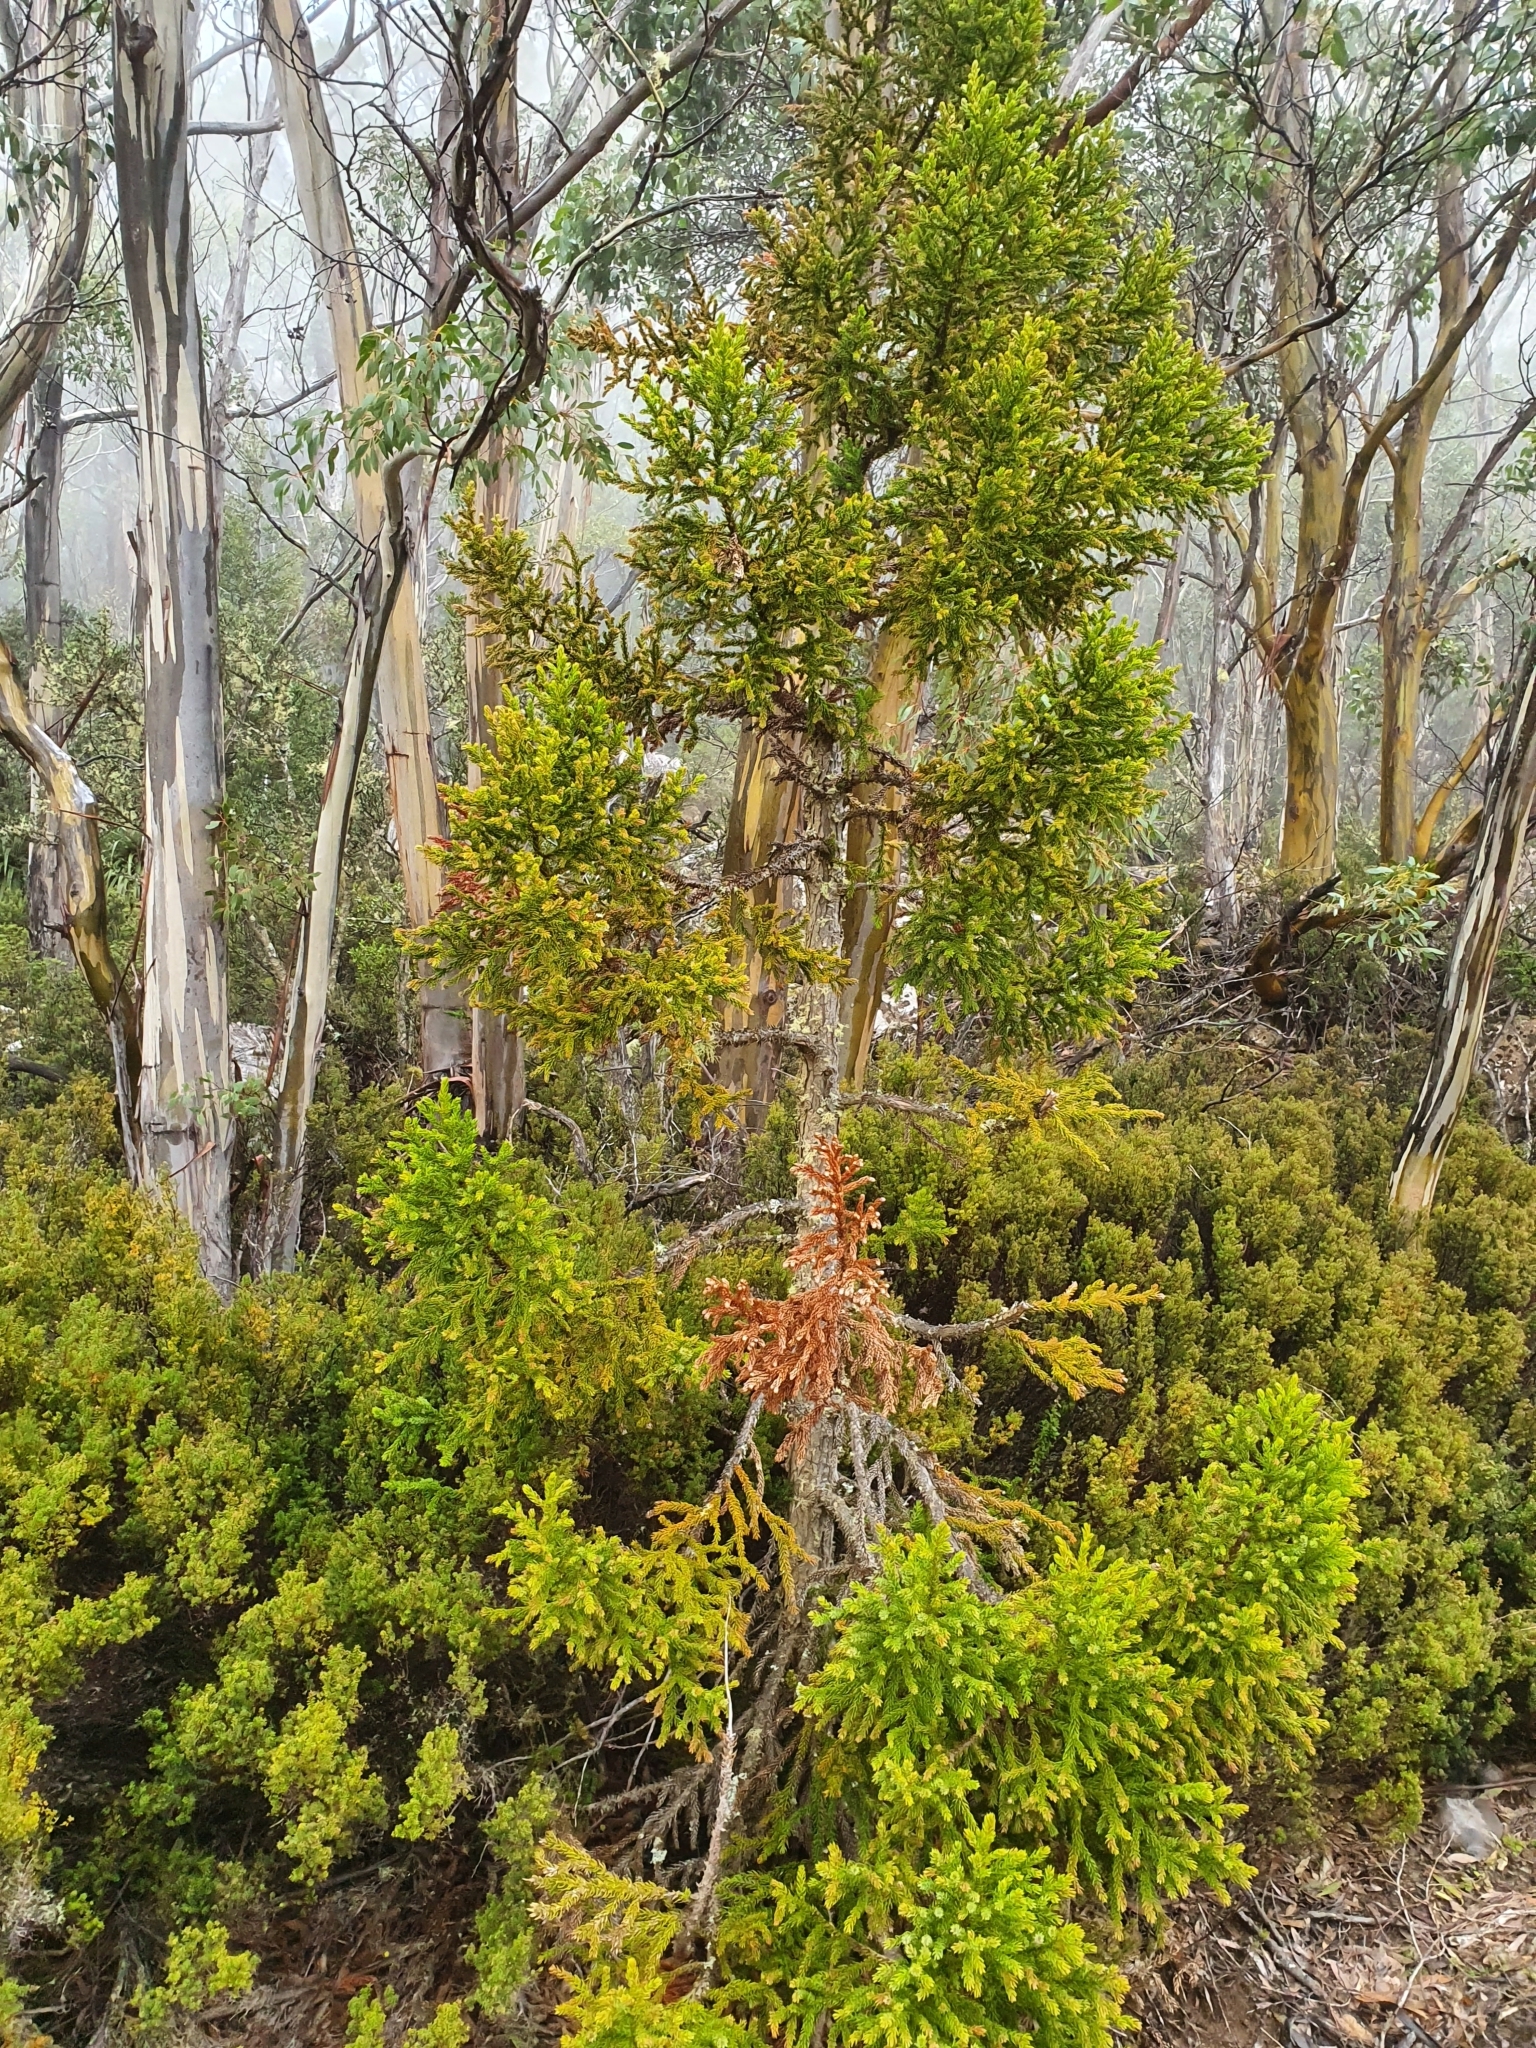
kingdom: Plantae
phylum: Tracheophyta
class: Pinopsida
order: Pinales
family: Cupressaceae
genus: Athrotaxis
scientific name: Athrotaxis selaginoides
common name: King william pine
